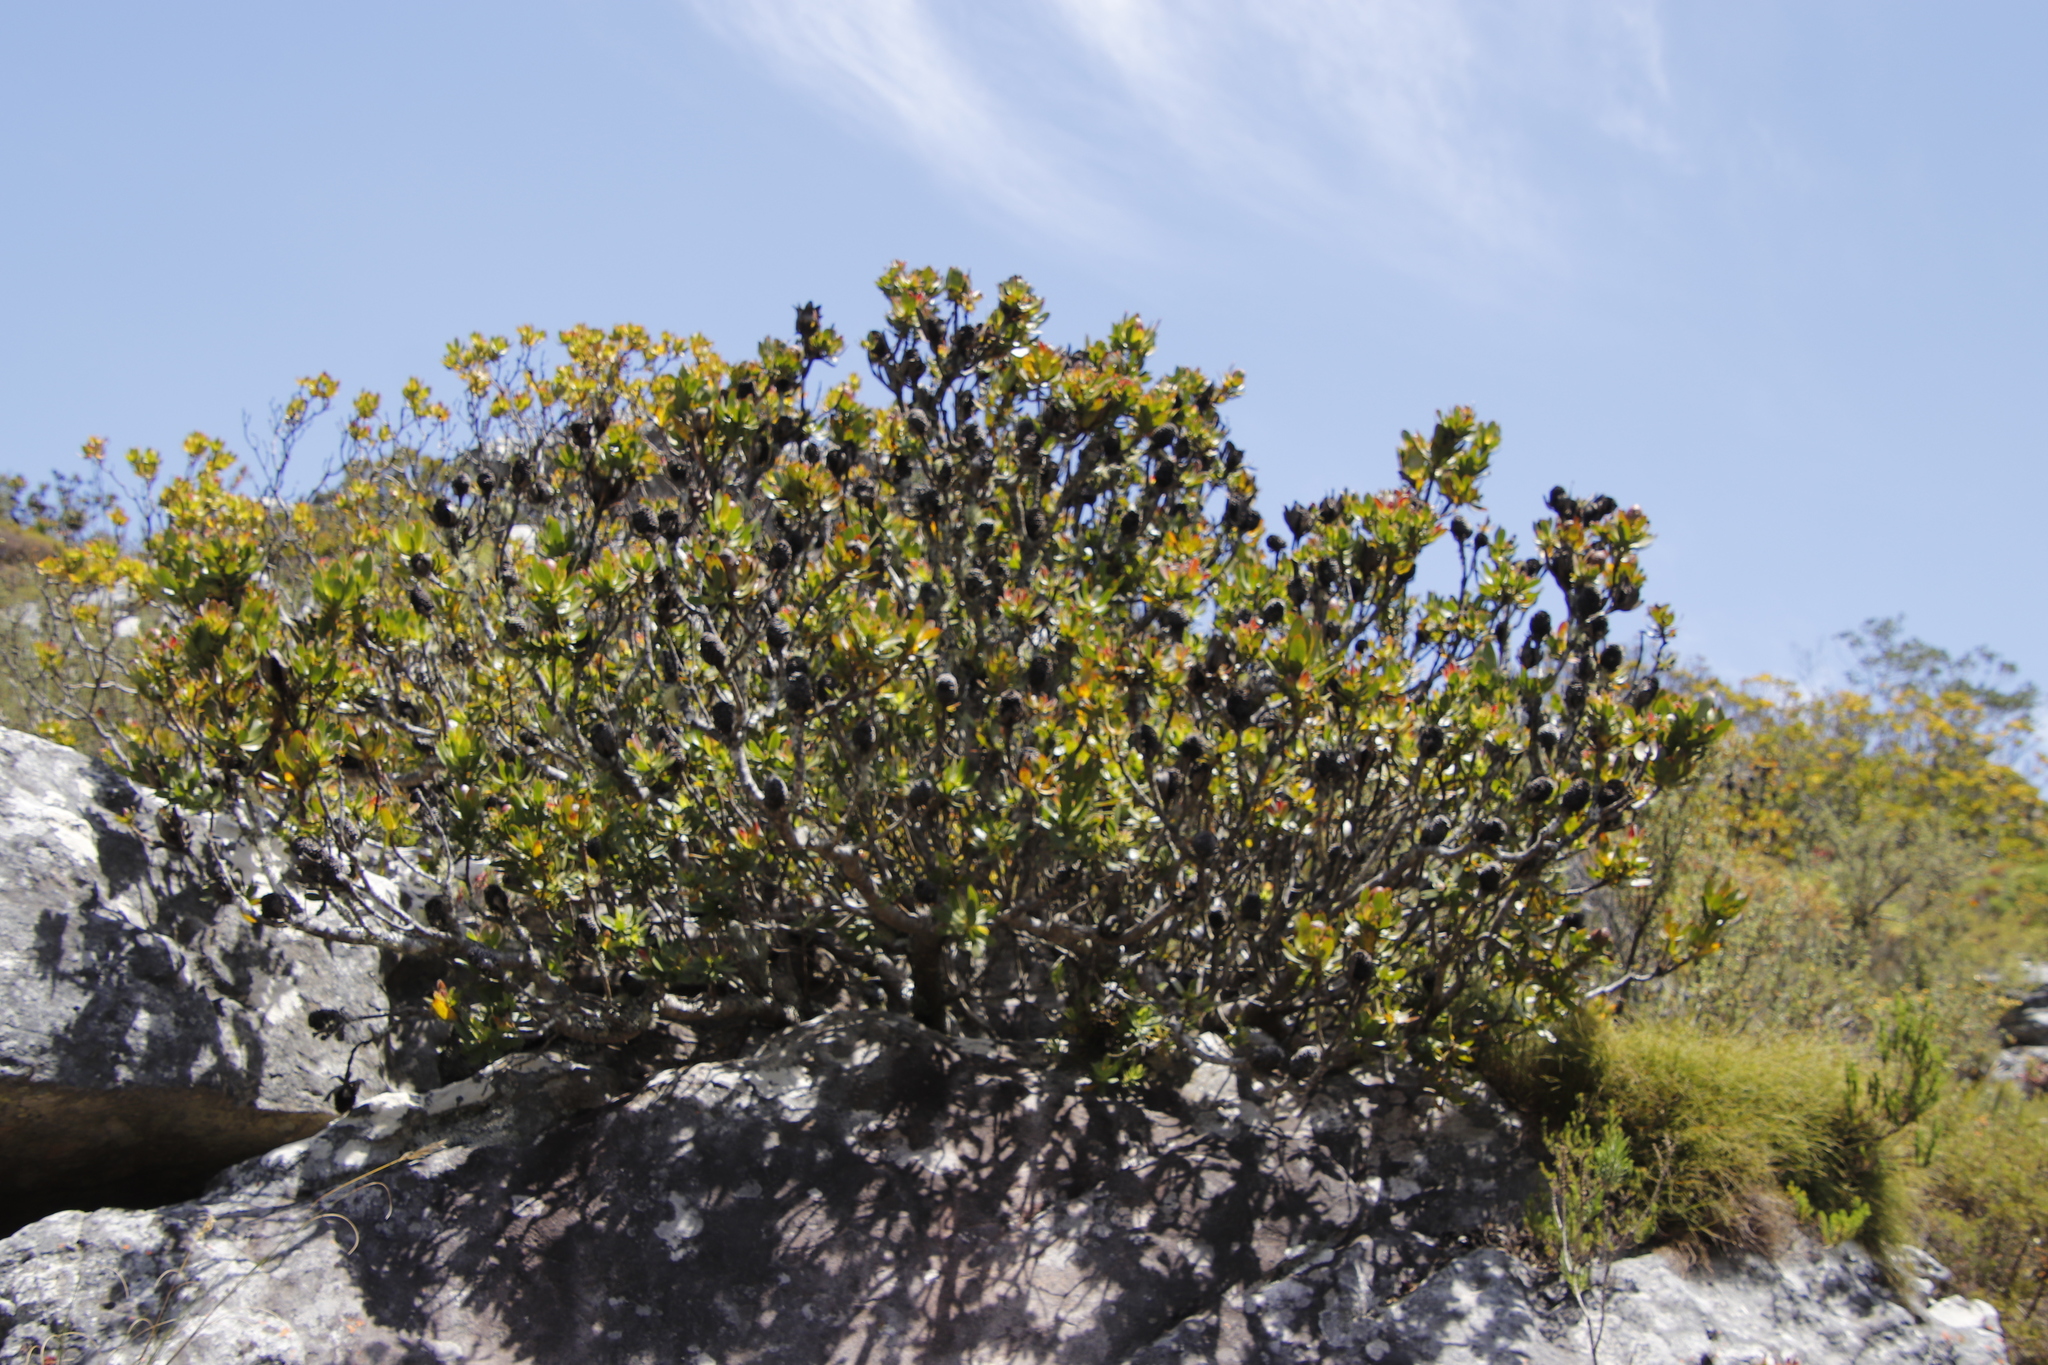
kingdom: Plantae
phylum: Tracheophyta
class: Magnoliopsida
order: Rosales
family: Rosaceae
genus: Cliffortia
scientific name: Cliffortia strobilifera
